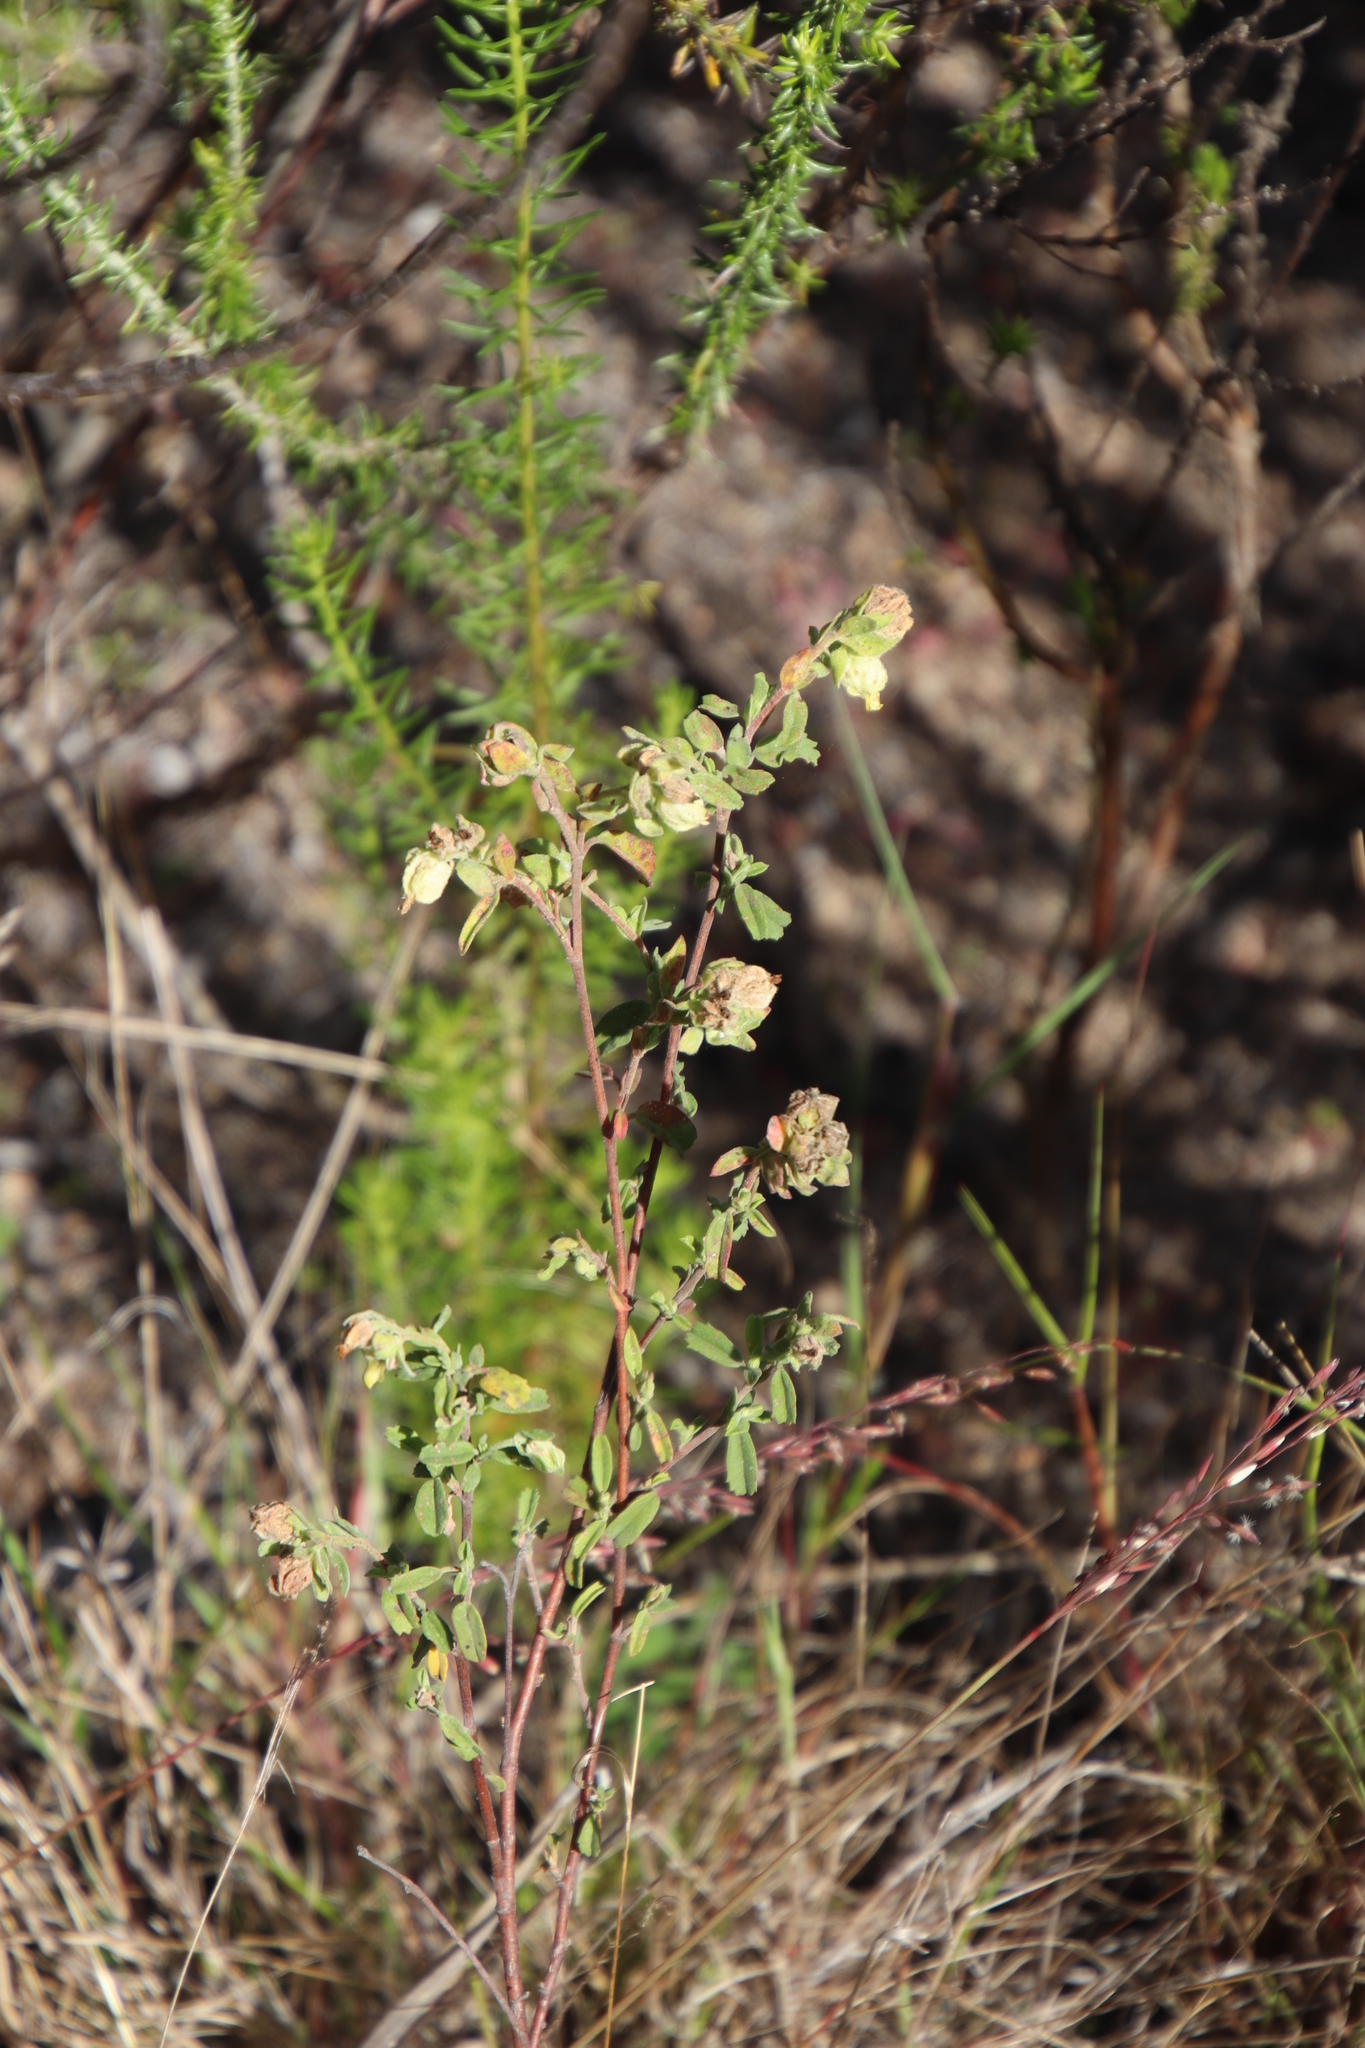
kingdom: Plantae
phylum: Tracheophyta
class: Magnoliopsida
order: Malvales
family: Malvaceae
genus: Hermannia
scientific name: Hermannia hyssopifolia
